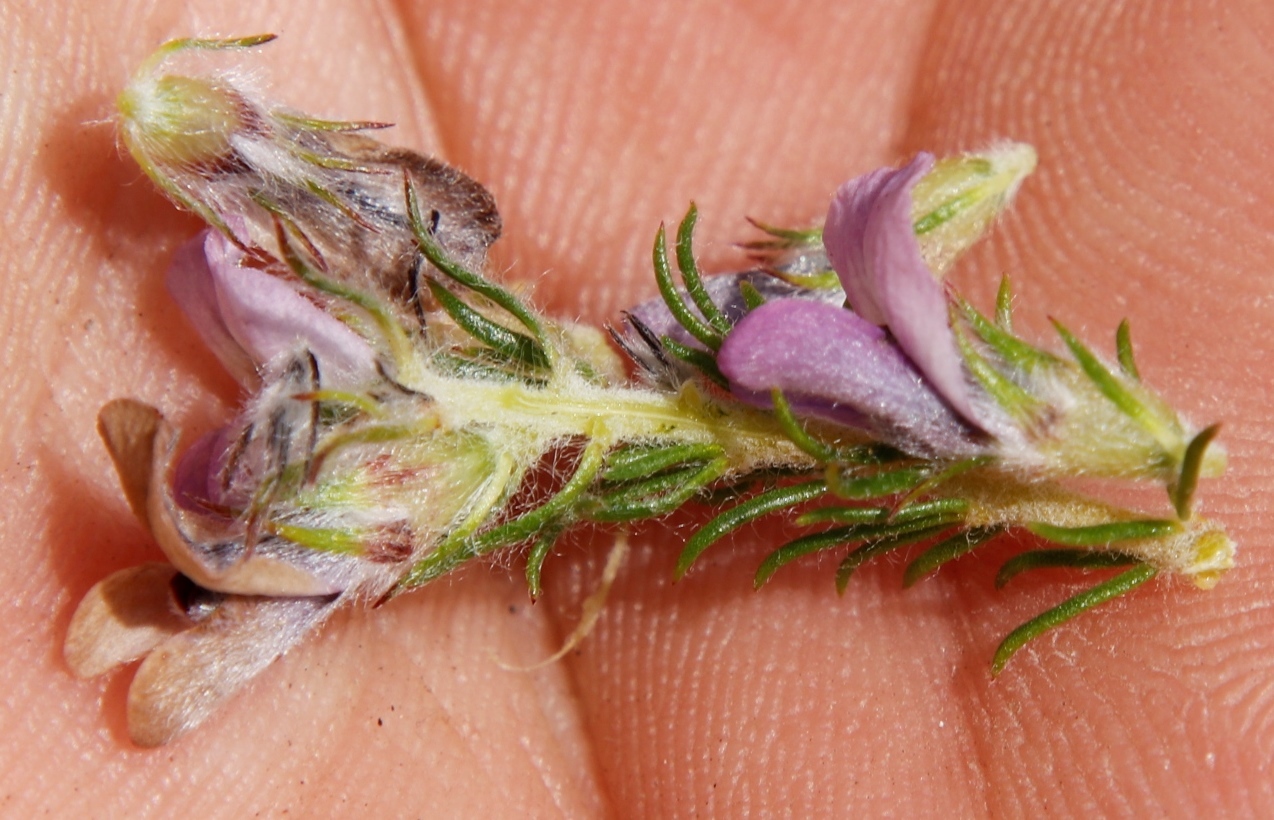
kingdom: Plantae
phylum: Tracheophyta
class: Magnoliopsida
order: Fabales
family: Fabaceae
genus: Aspalathus
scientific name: Aspalathus cephalotes
